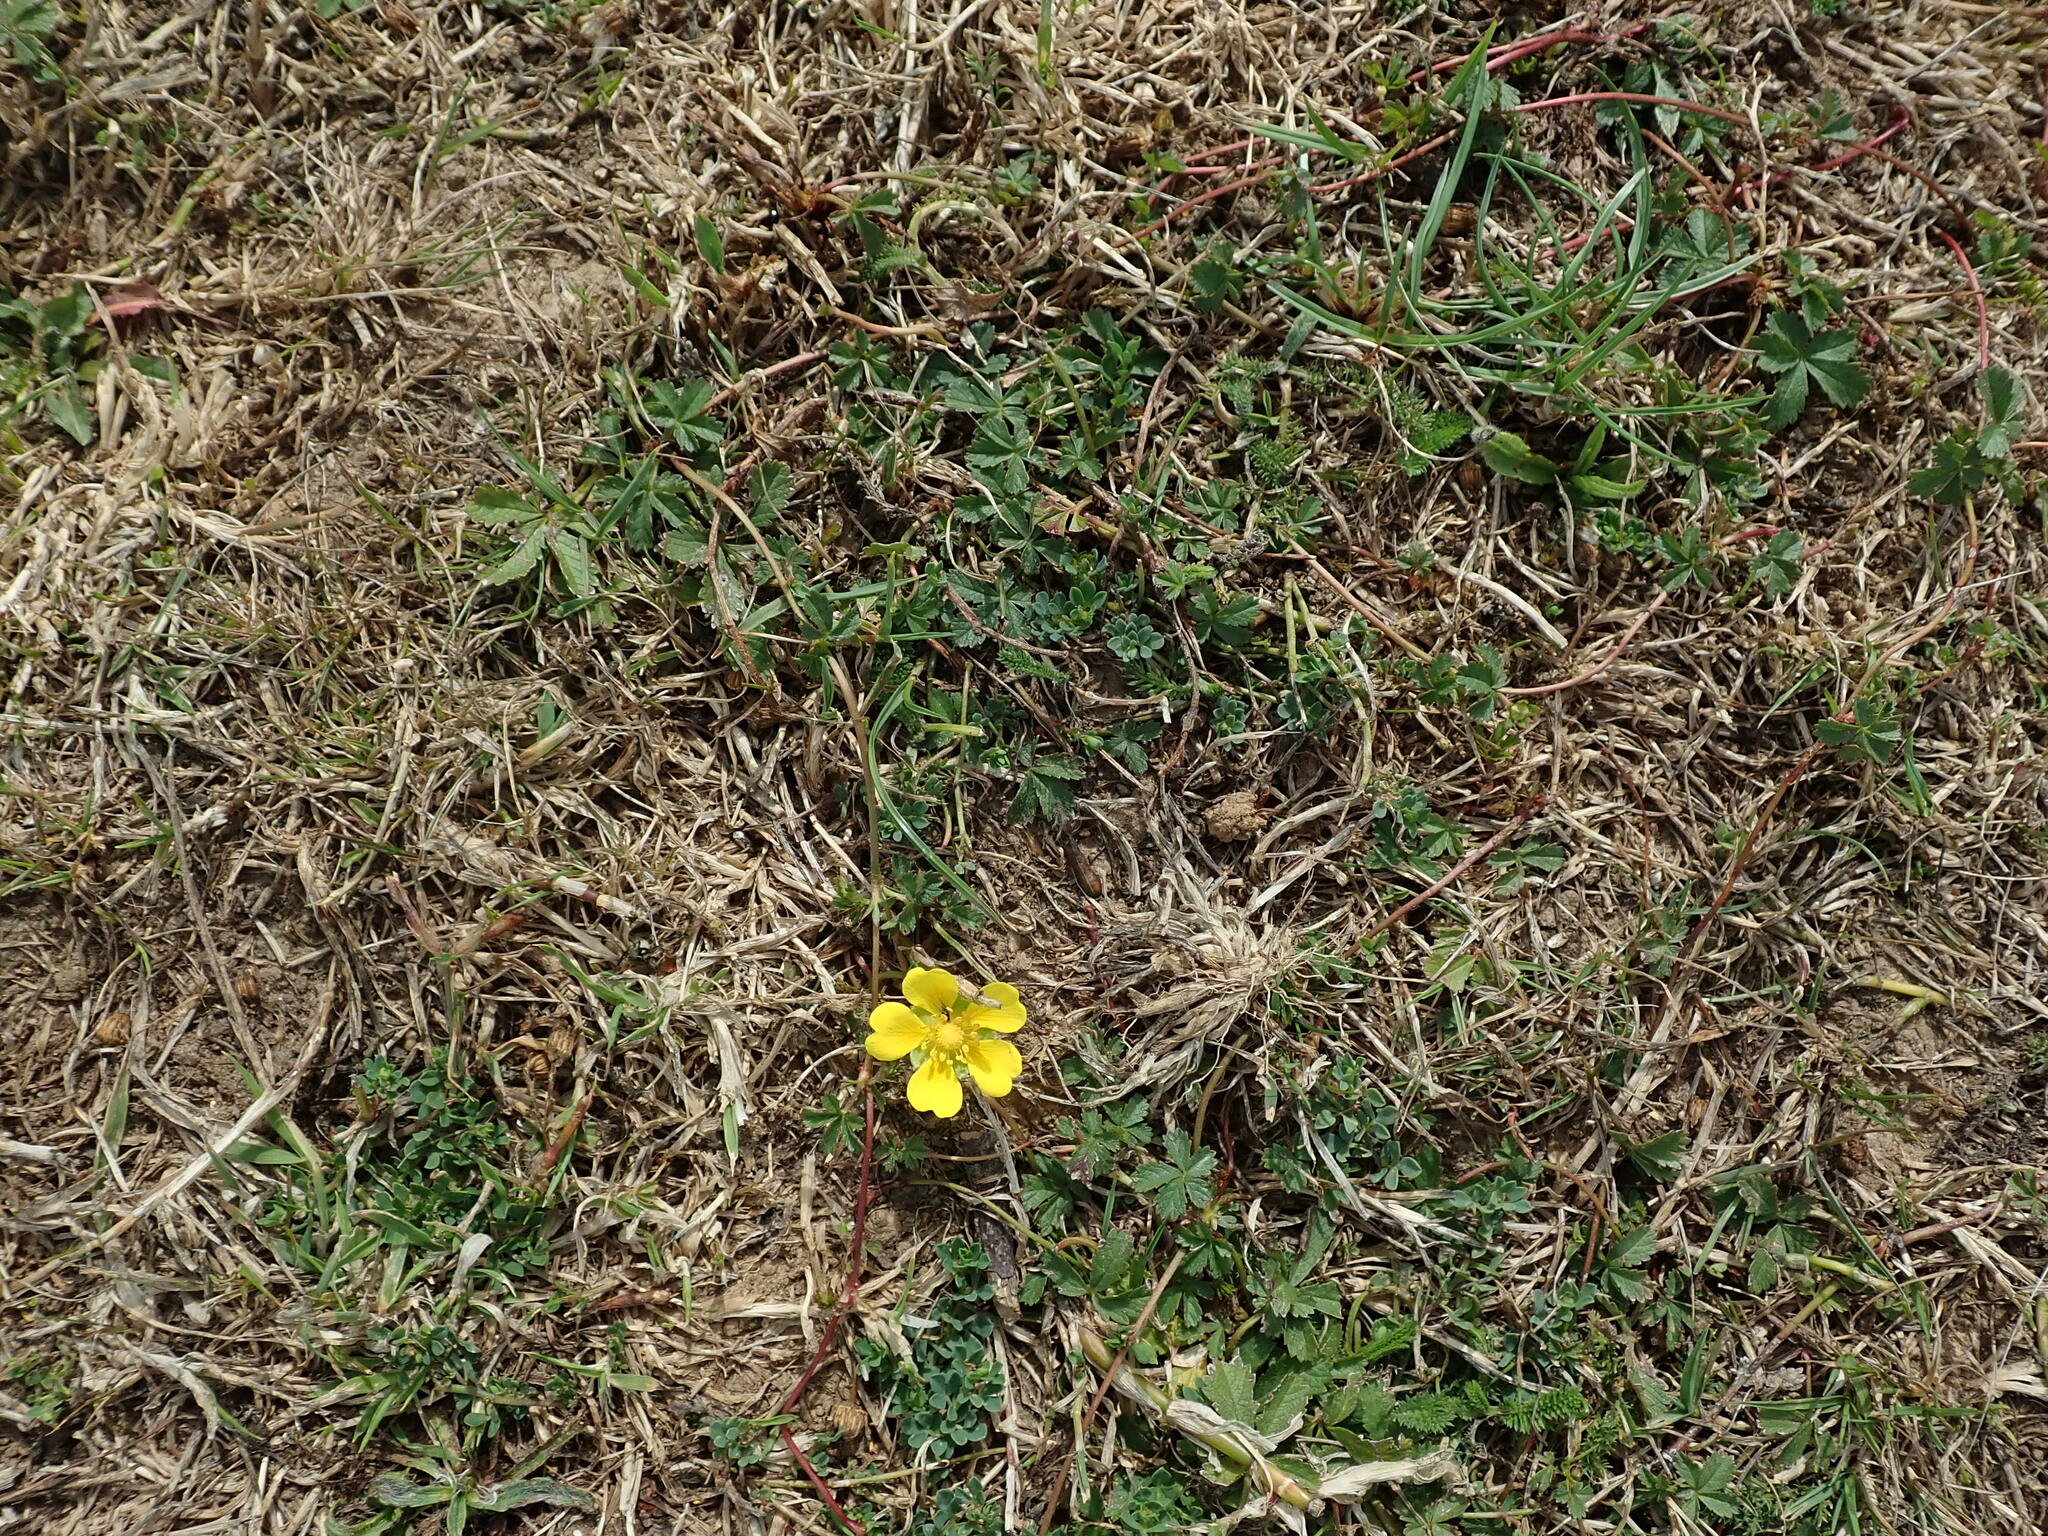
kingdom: Plantae
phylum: Tracheophyta
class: Magnoliopsida
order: Rosales
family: Rosaceae
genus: Potentilla
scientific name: Potentilla reptans
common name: Creeping cinquefoil
